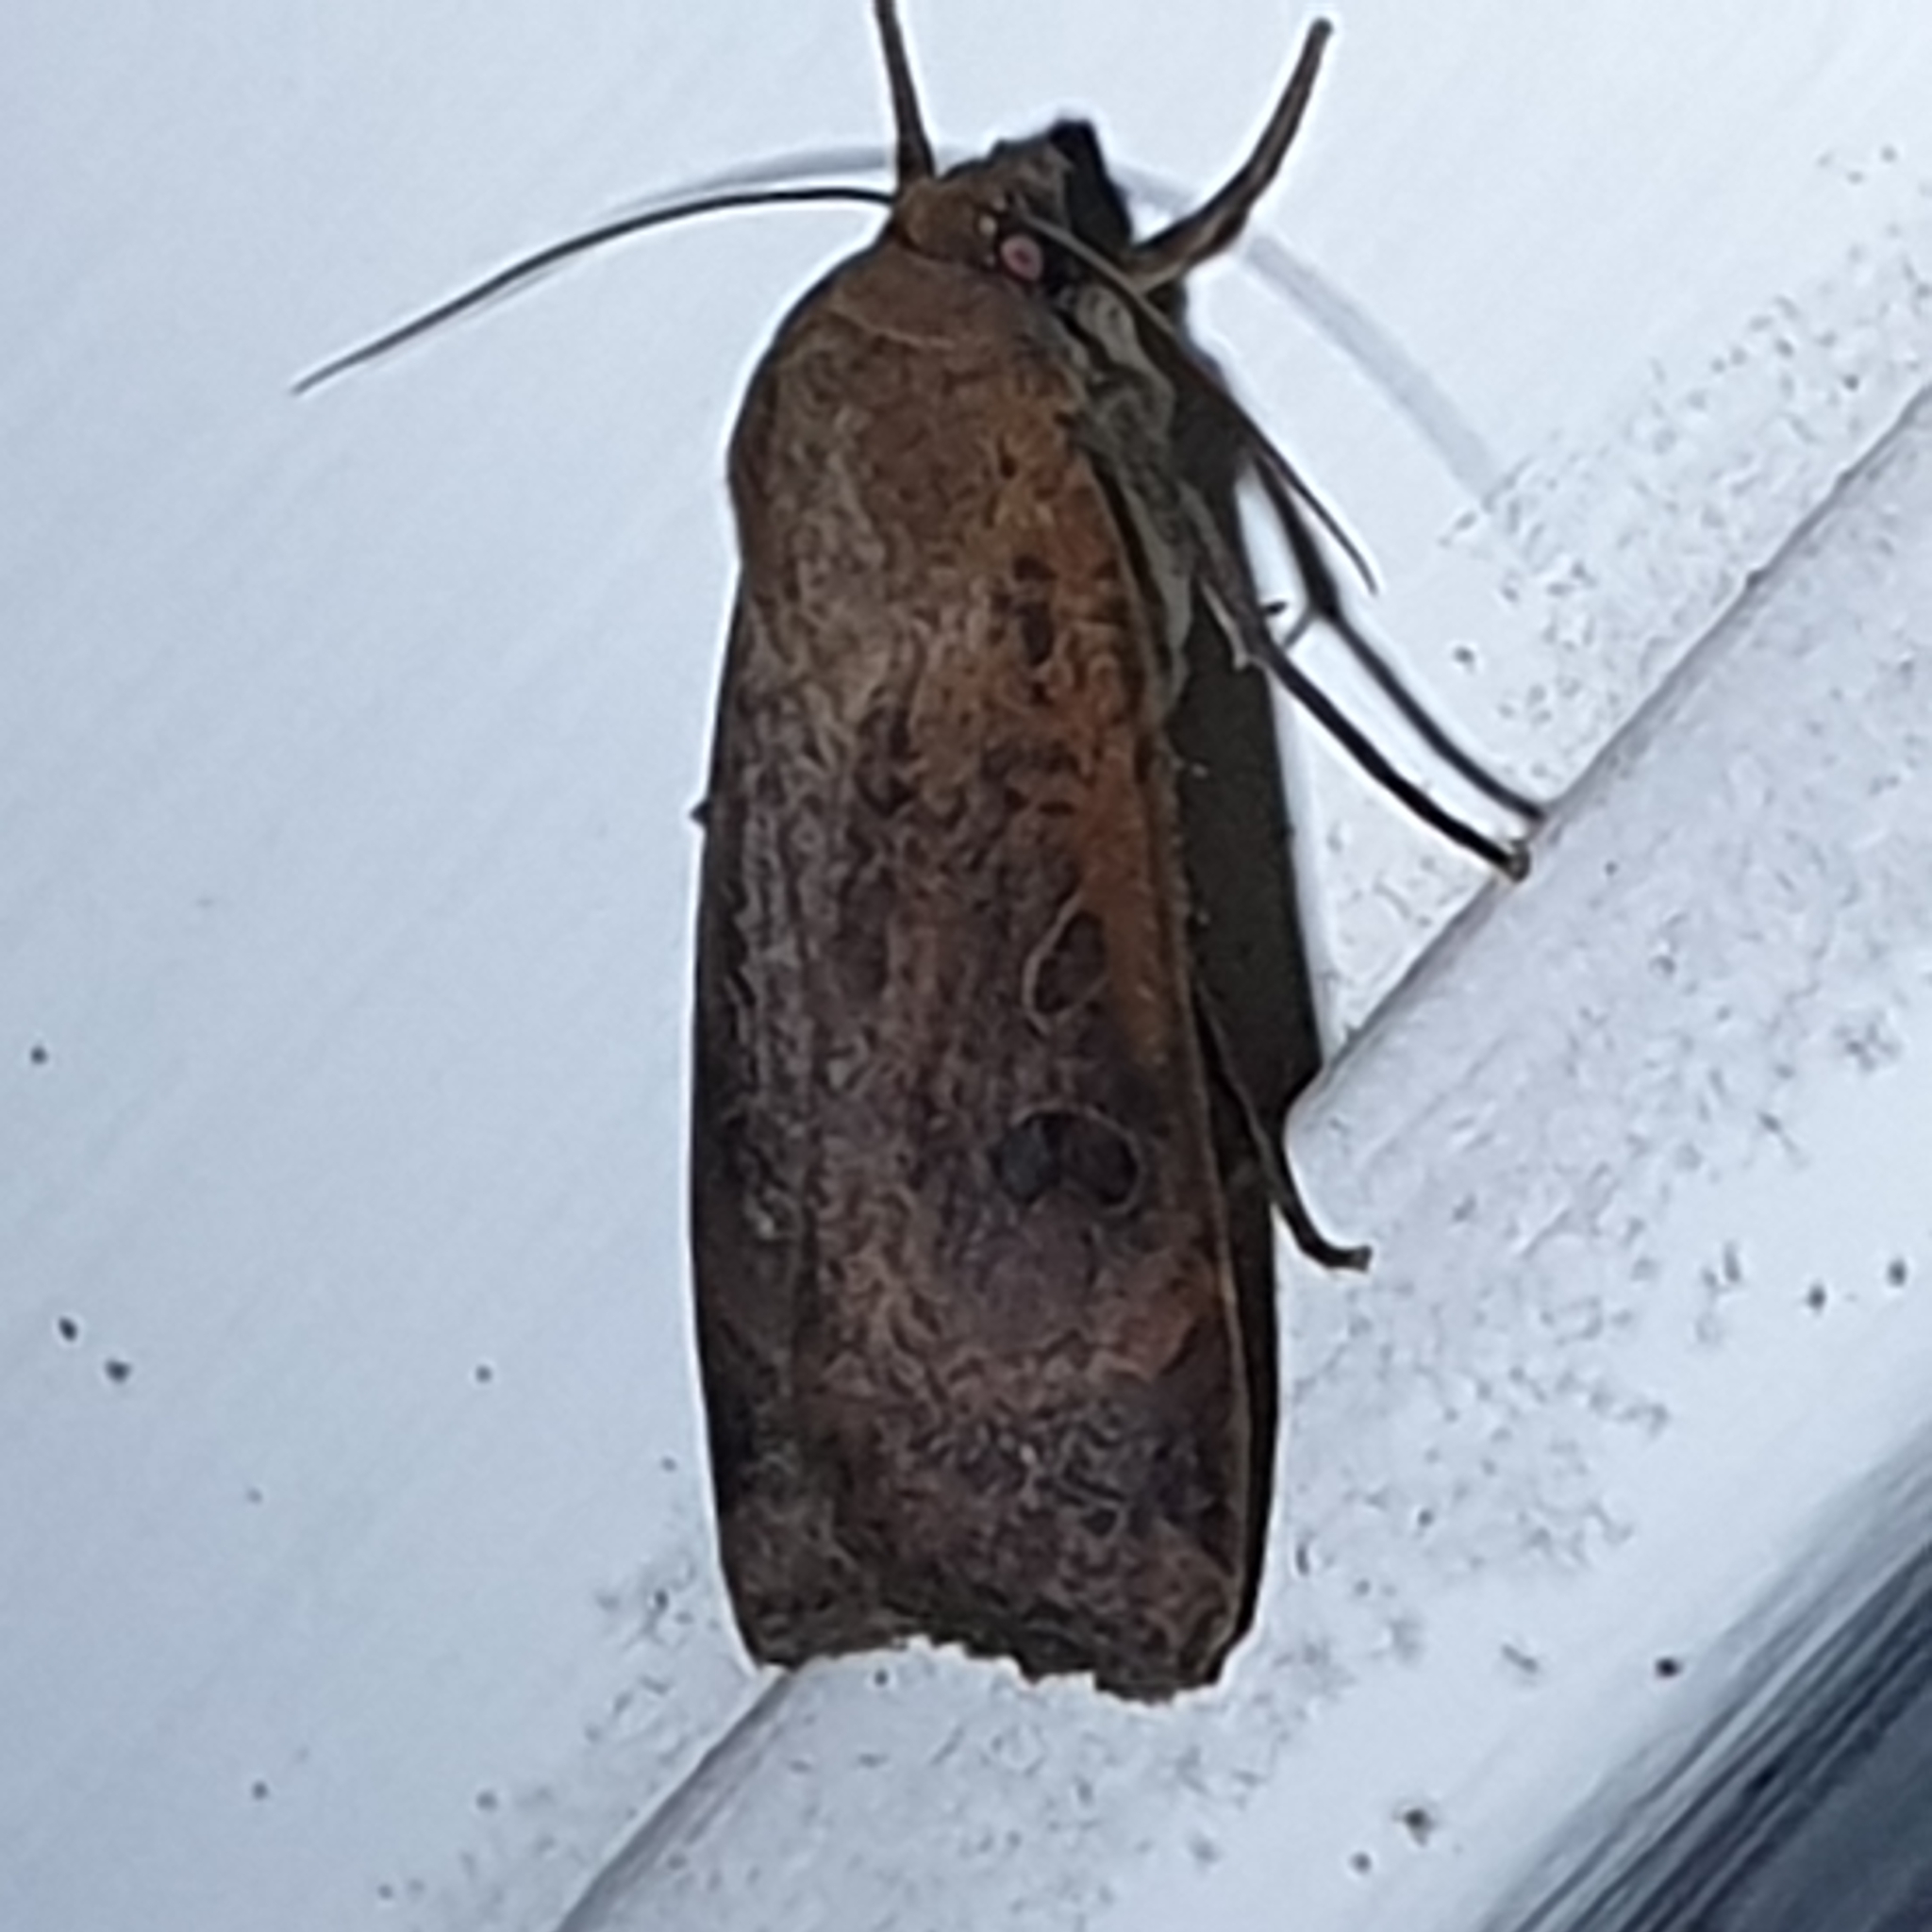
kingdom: Animalia
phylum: Arthropoda
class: Insecta
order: Lepidoptera
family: Noctuidae
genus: Noctua
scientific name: Noctua comes
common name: Lesser yellow underwing
